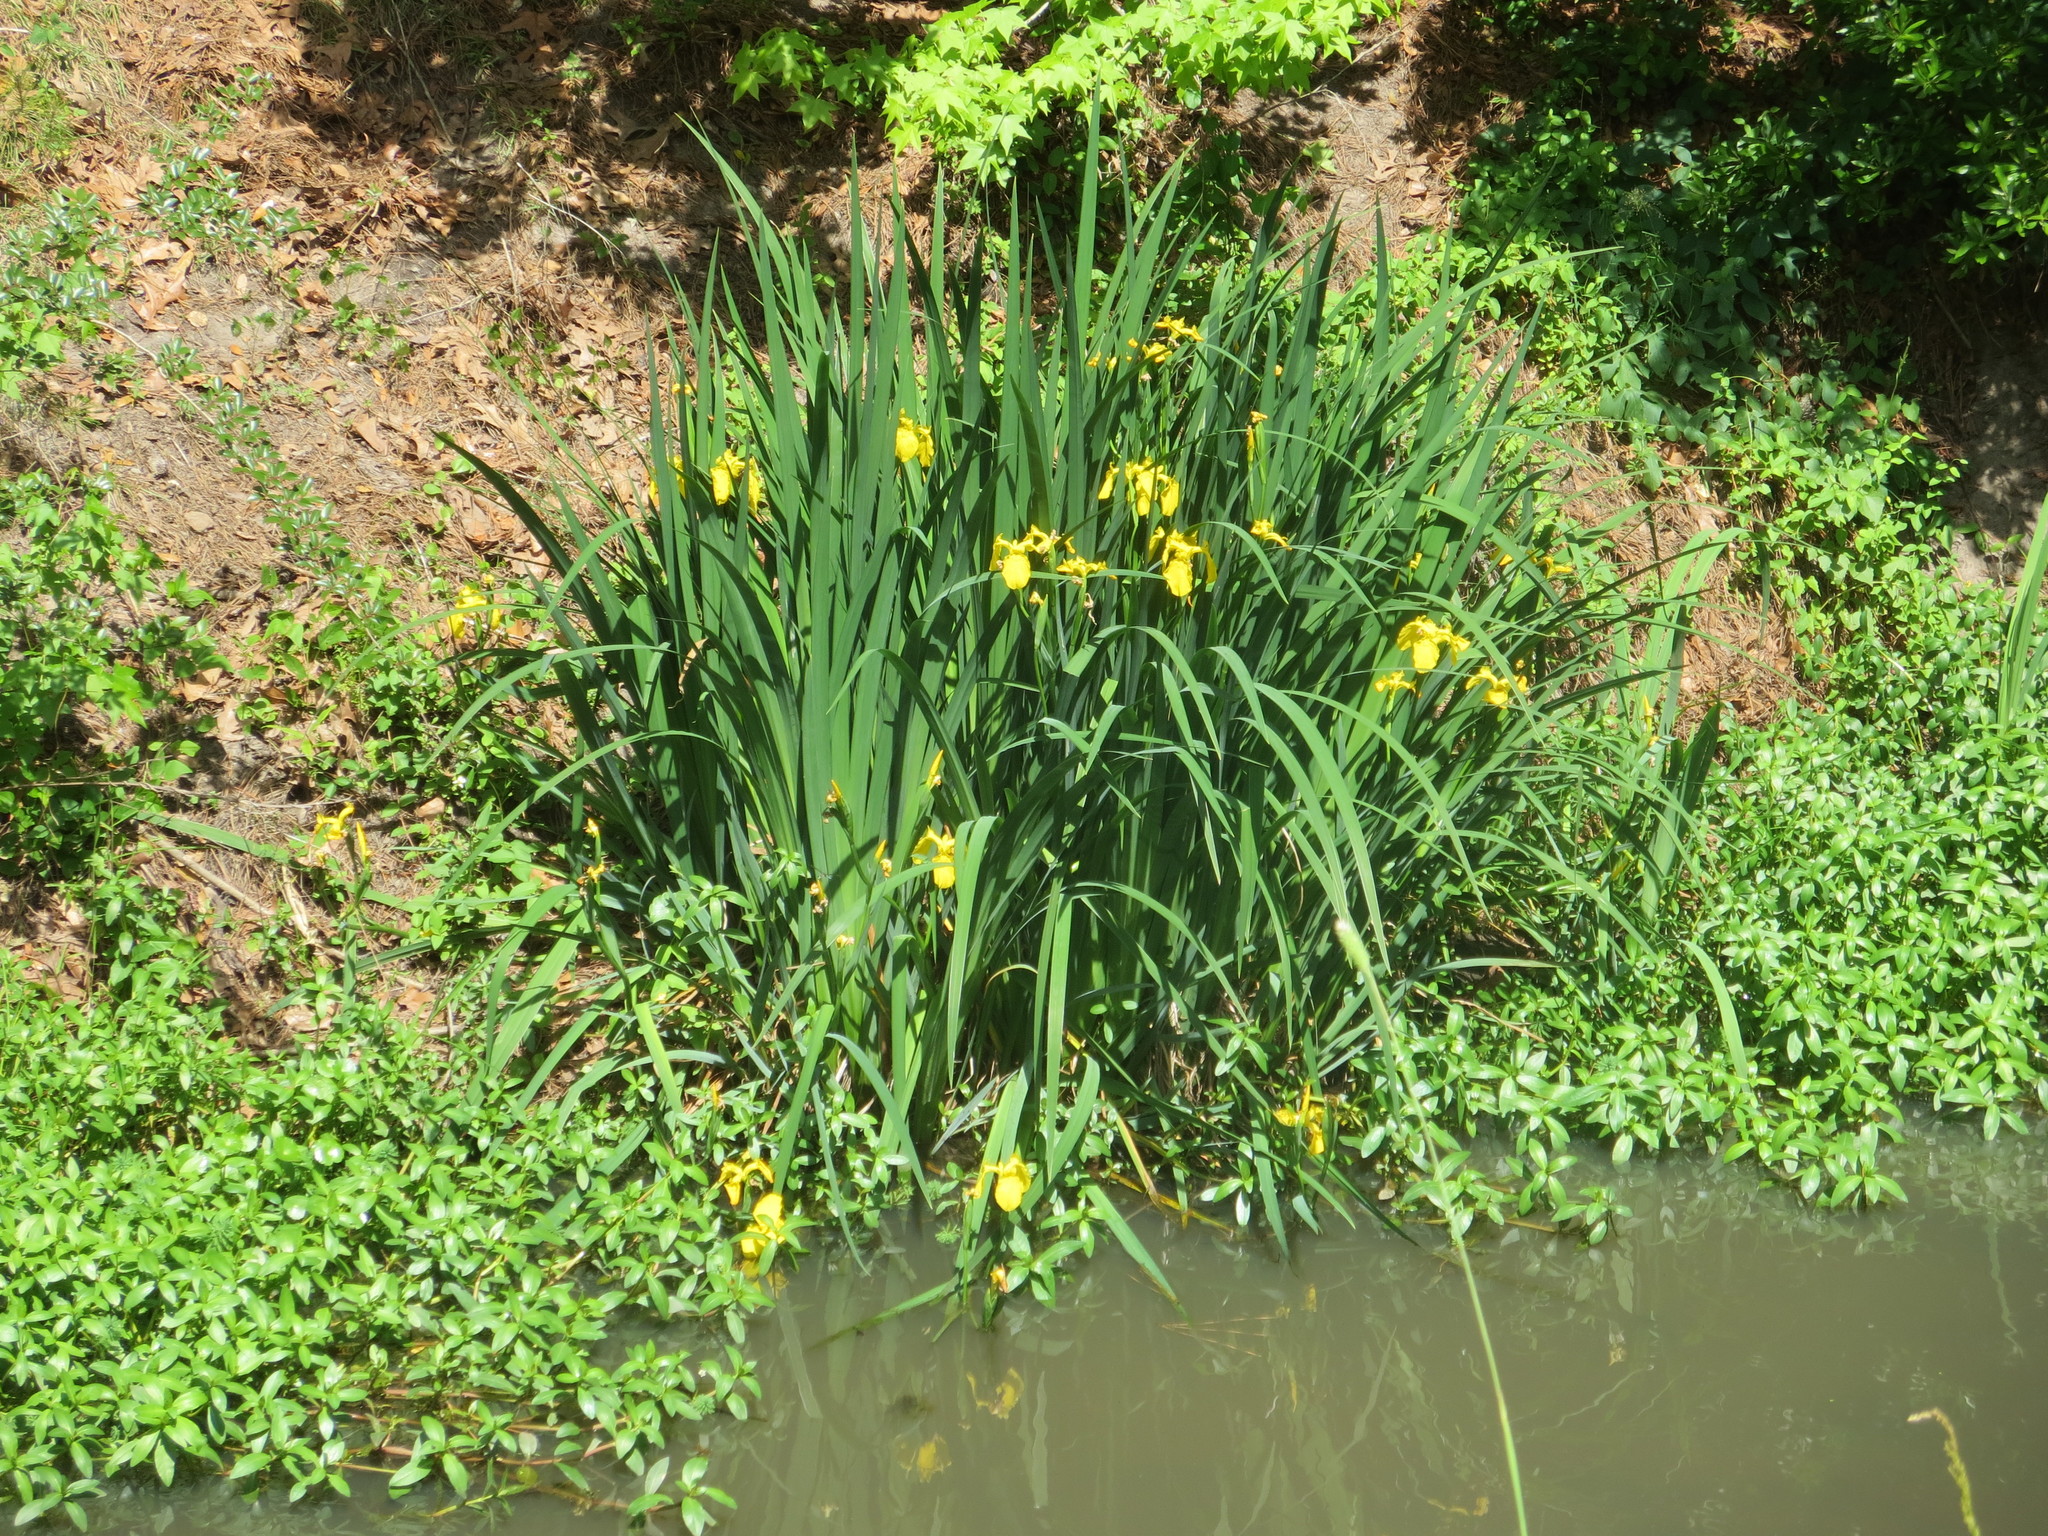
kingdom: Plantae
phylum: Tracheophyta
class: Liliopsida
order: Asparagales
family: Iridaceae
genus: Iris
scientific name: Iris pseudacorus
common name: Yellow flag
